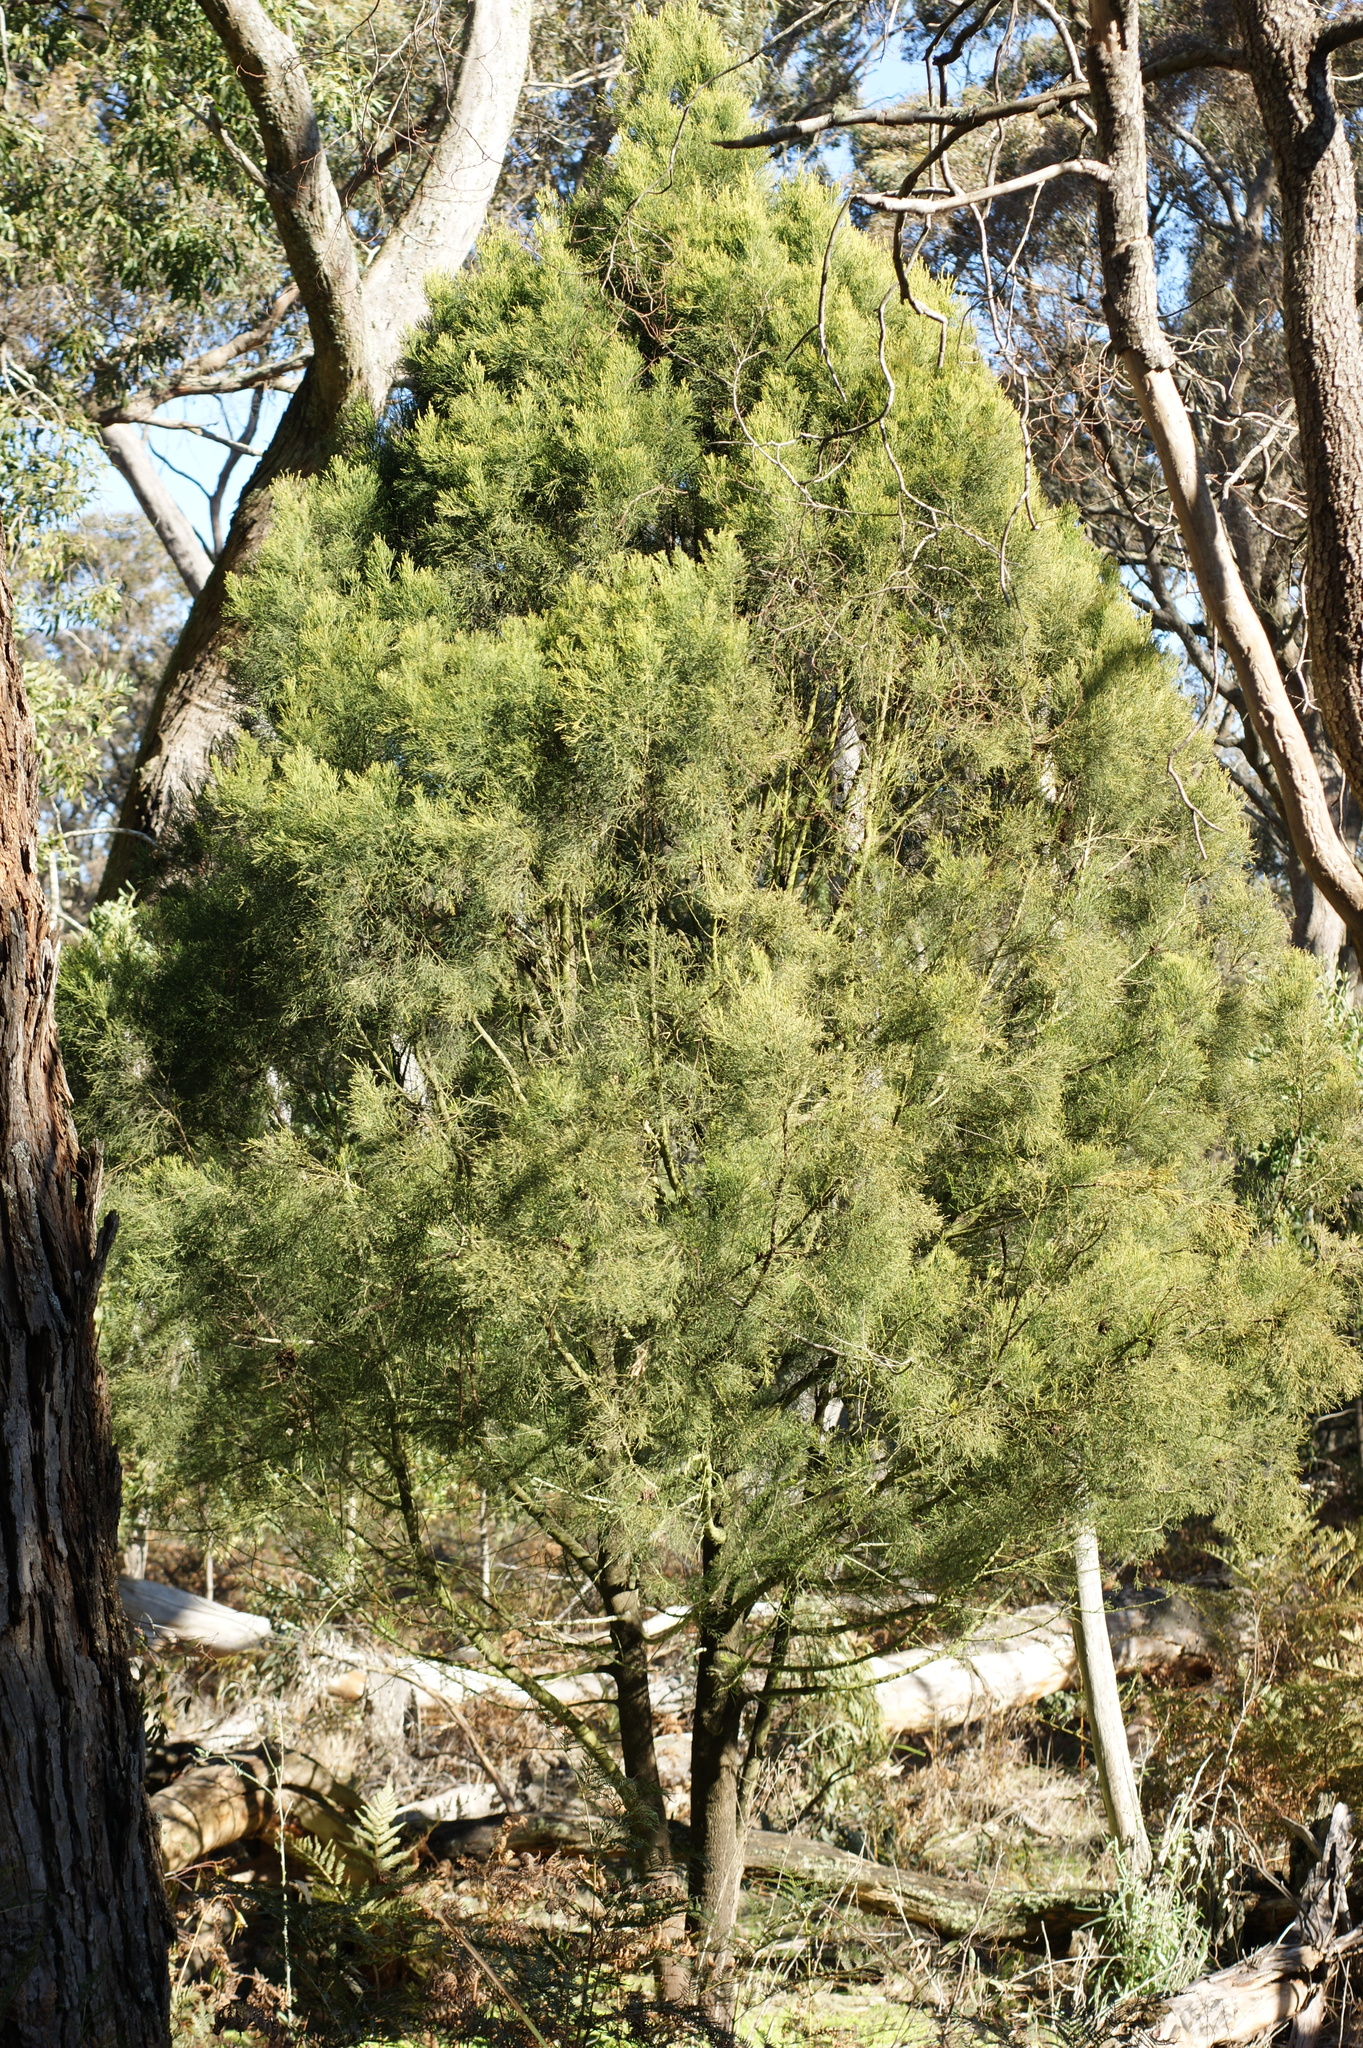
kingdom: Plantae
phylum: Tracheophyta
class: Magnoliopsida
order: Santalales
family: Santalaceae
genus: Exocarpos
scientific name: Exocarpos cupressiformis
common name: Cherry ballart
